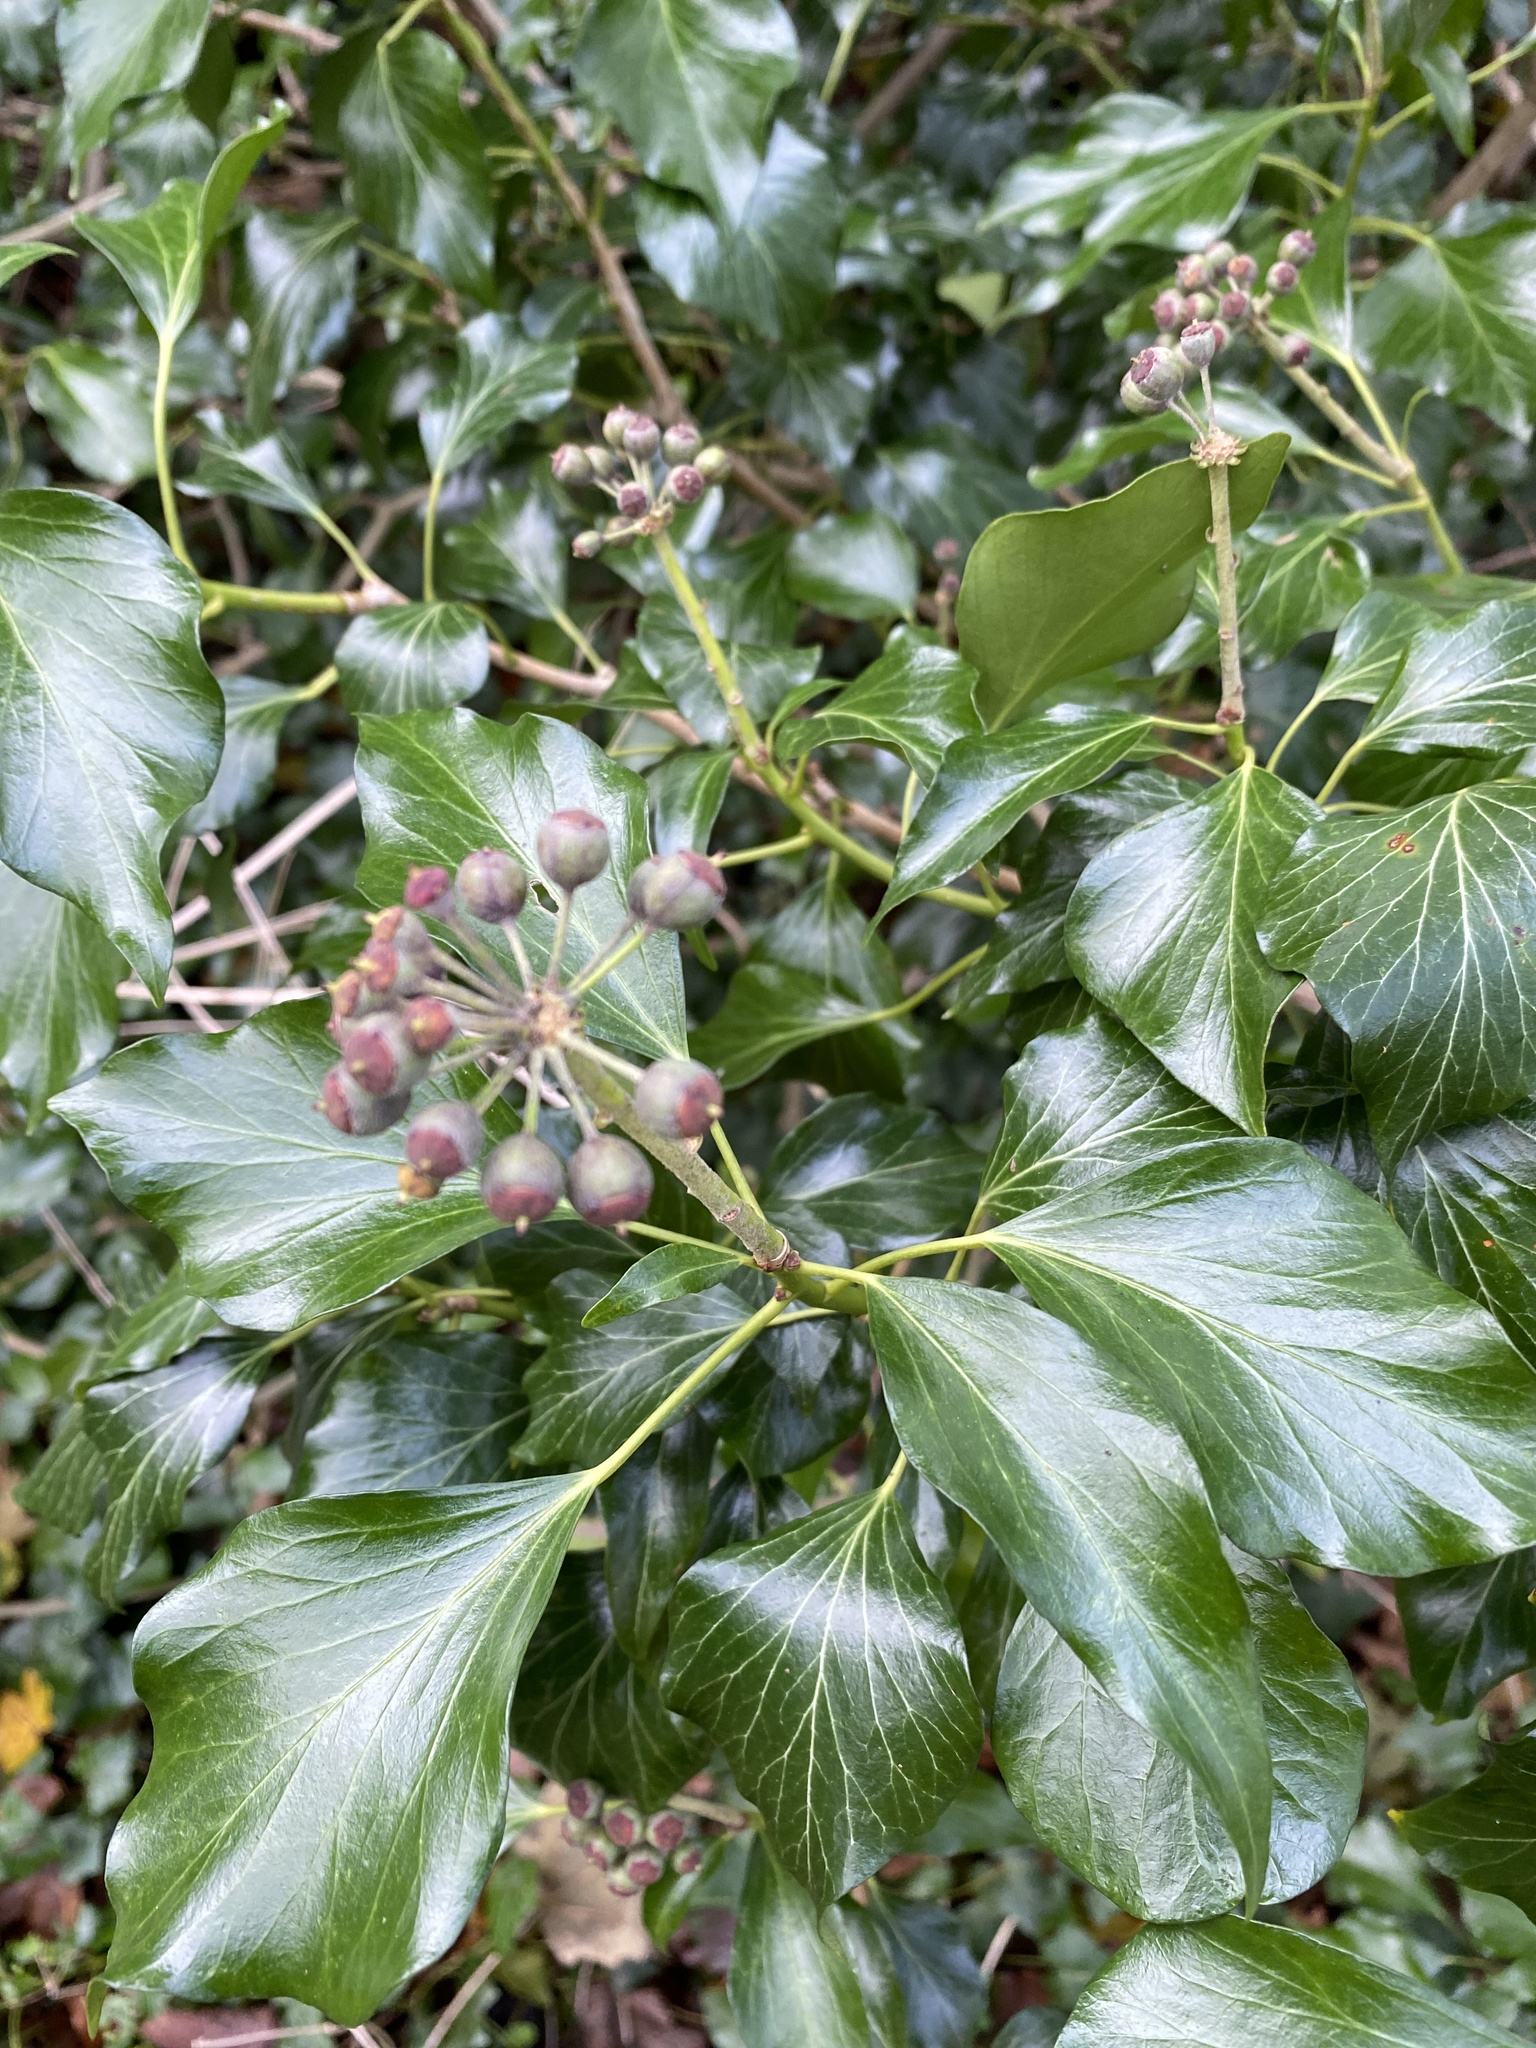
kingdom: Plantae
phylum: Tracheophyta
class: Magnoliopsida
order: Apiales
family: Araliaceae
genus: Hedera
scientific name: Hedera helix
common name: Ivy
